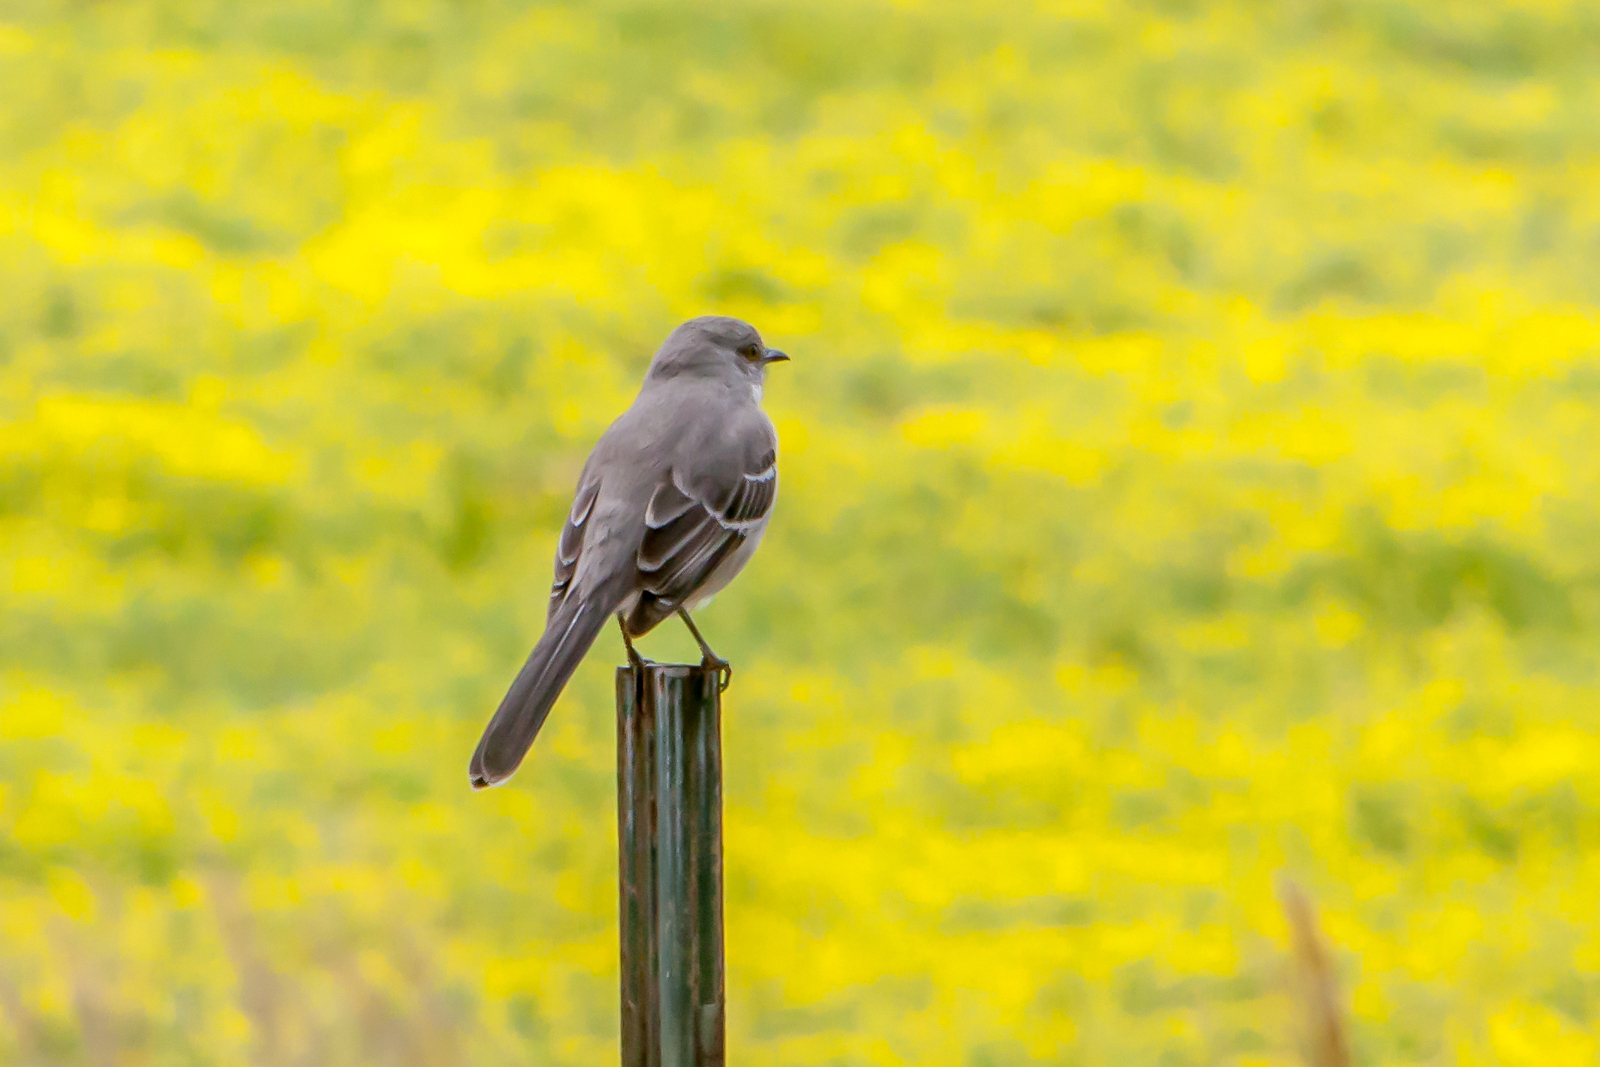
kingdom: Animalia
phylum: Chordata
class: Aves
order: Passeriformes
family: Mimidae
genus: Mimus
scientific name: Mimus polyglottos
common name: Northern mockingbird
